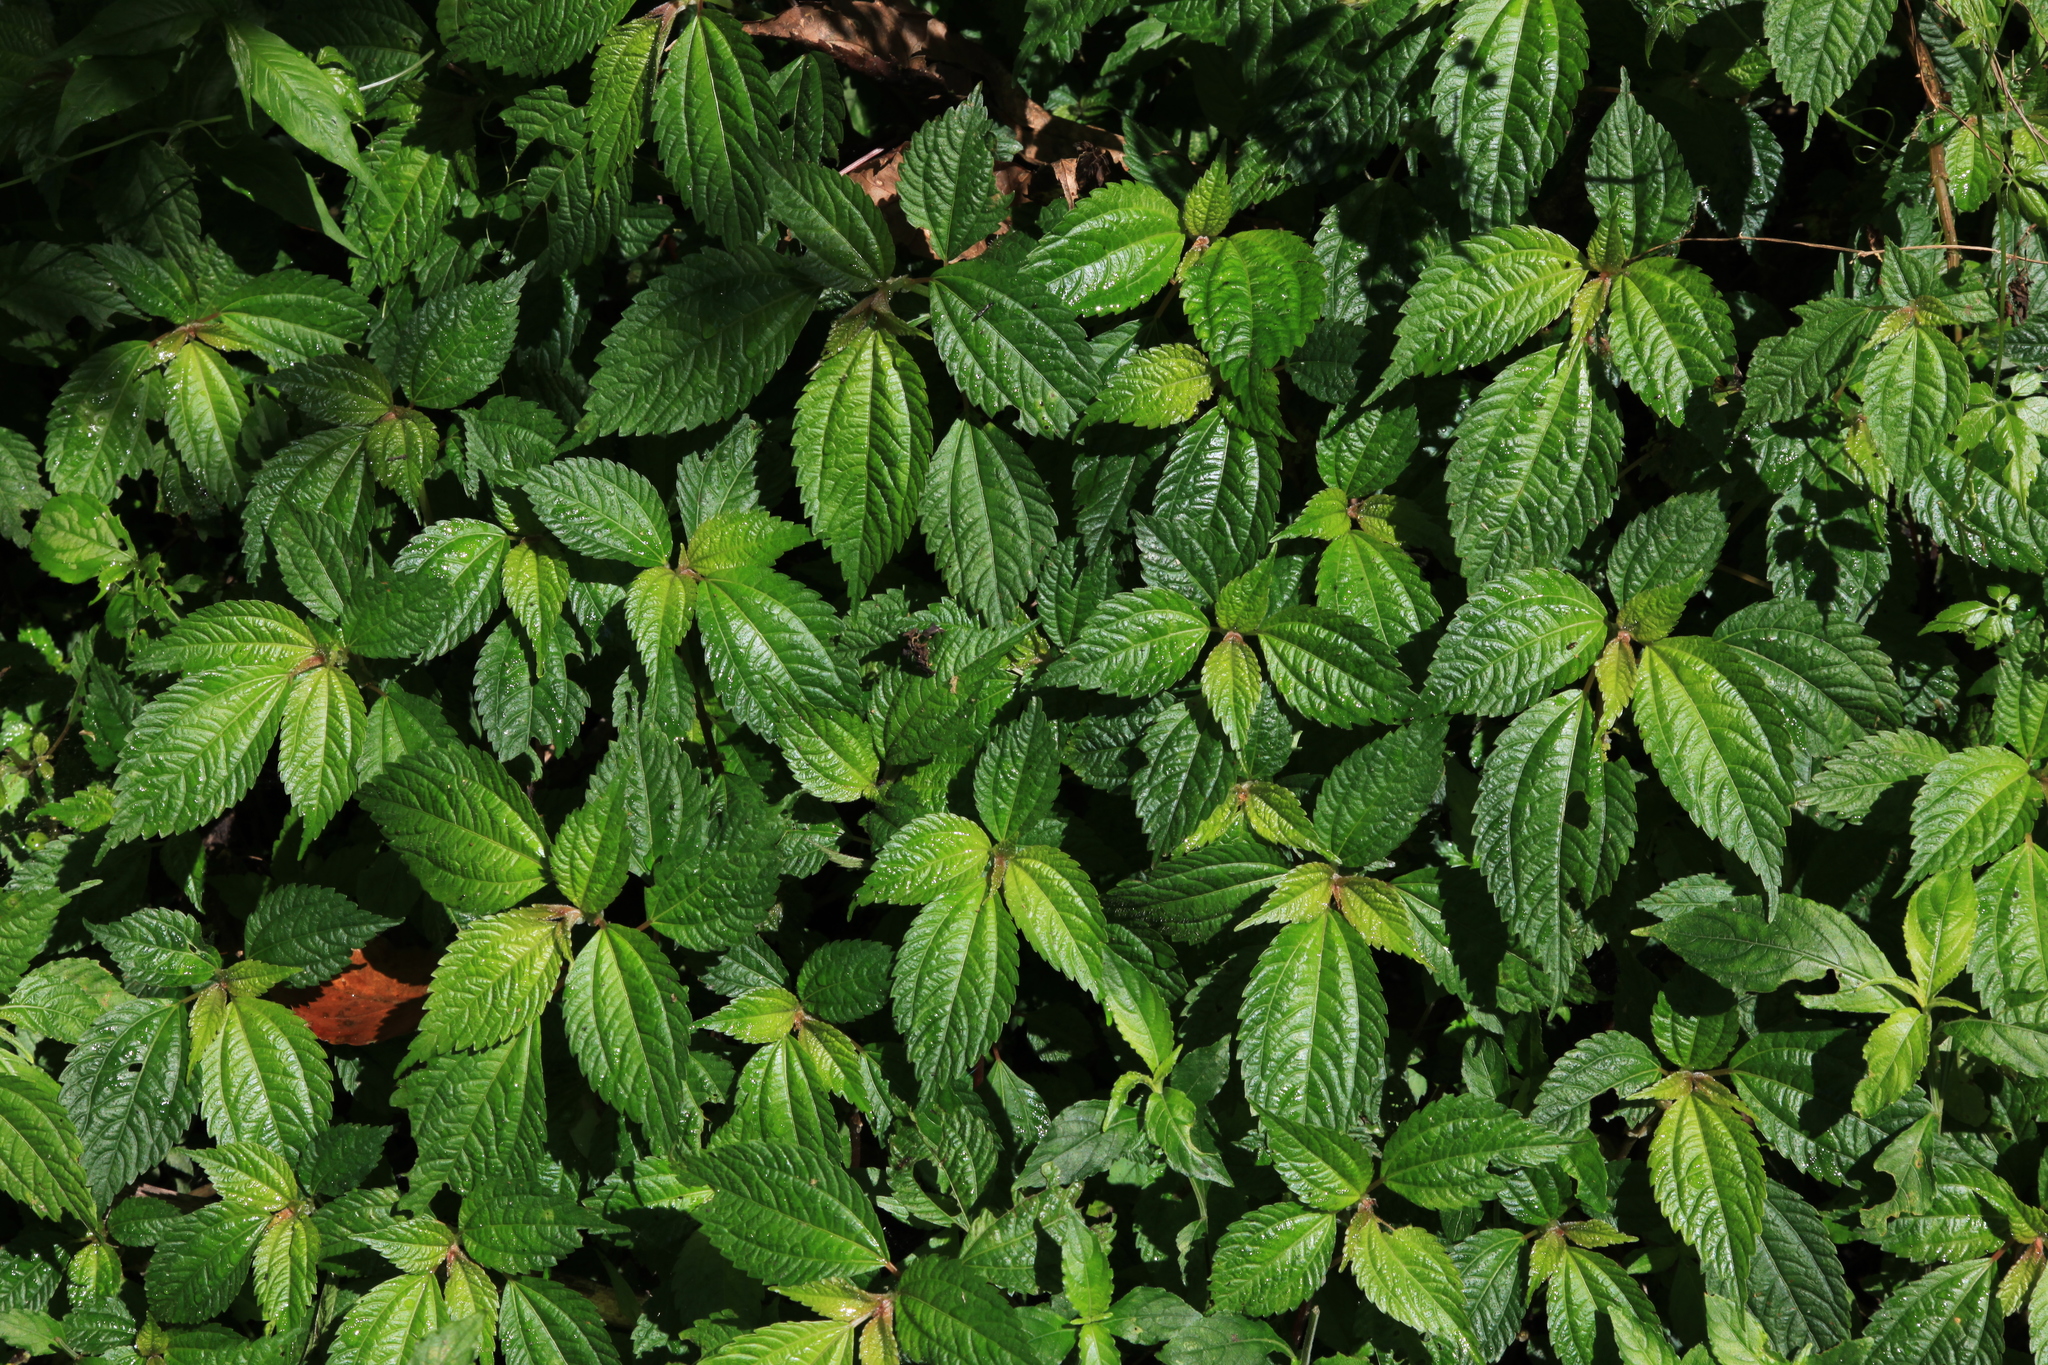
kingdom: Plantae
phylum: Tracheophyta
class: Magnoliopsida
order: Rosales
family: Urticaceae
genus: Pilea
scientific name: Pilea brevicornuta
